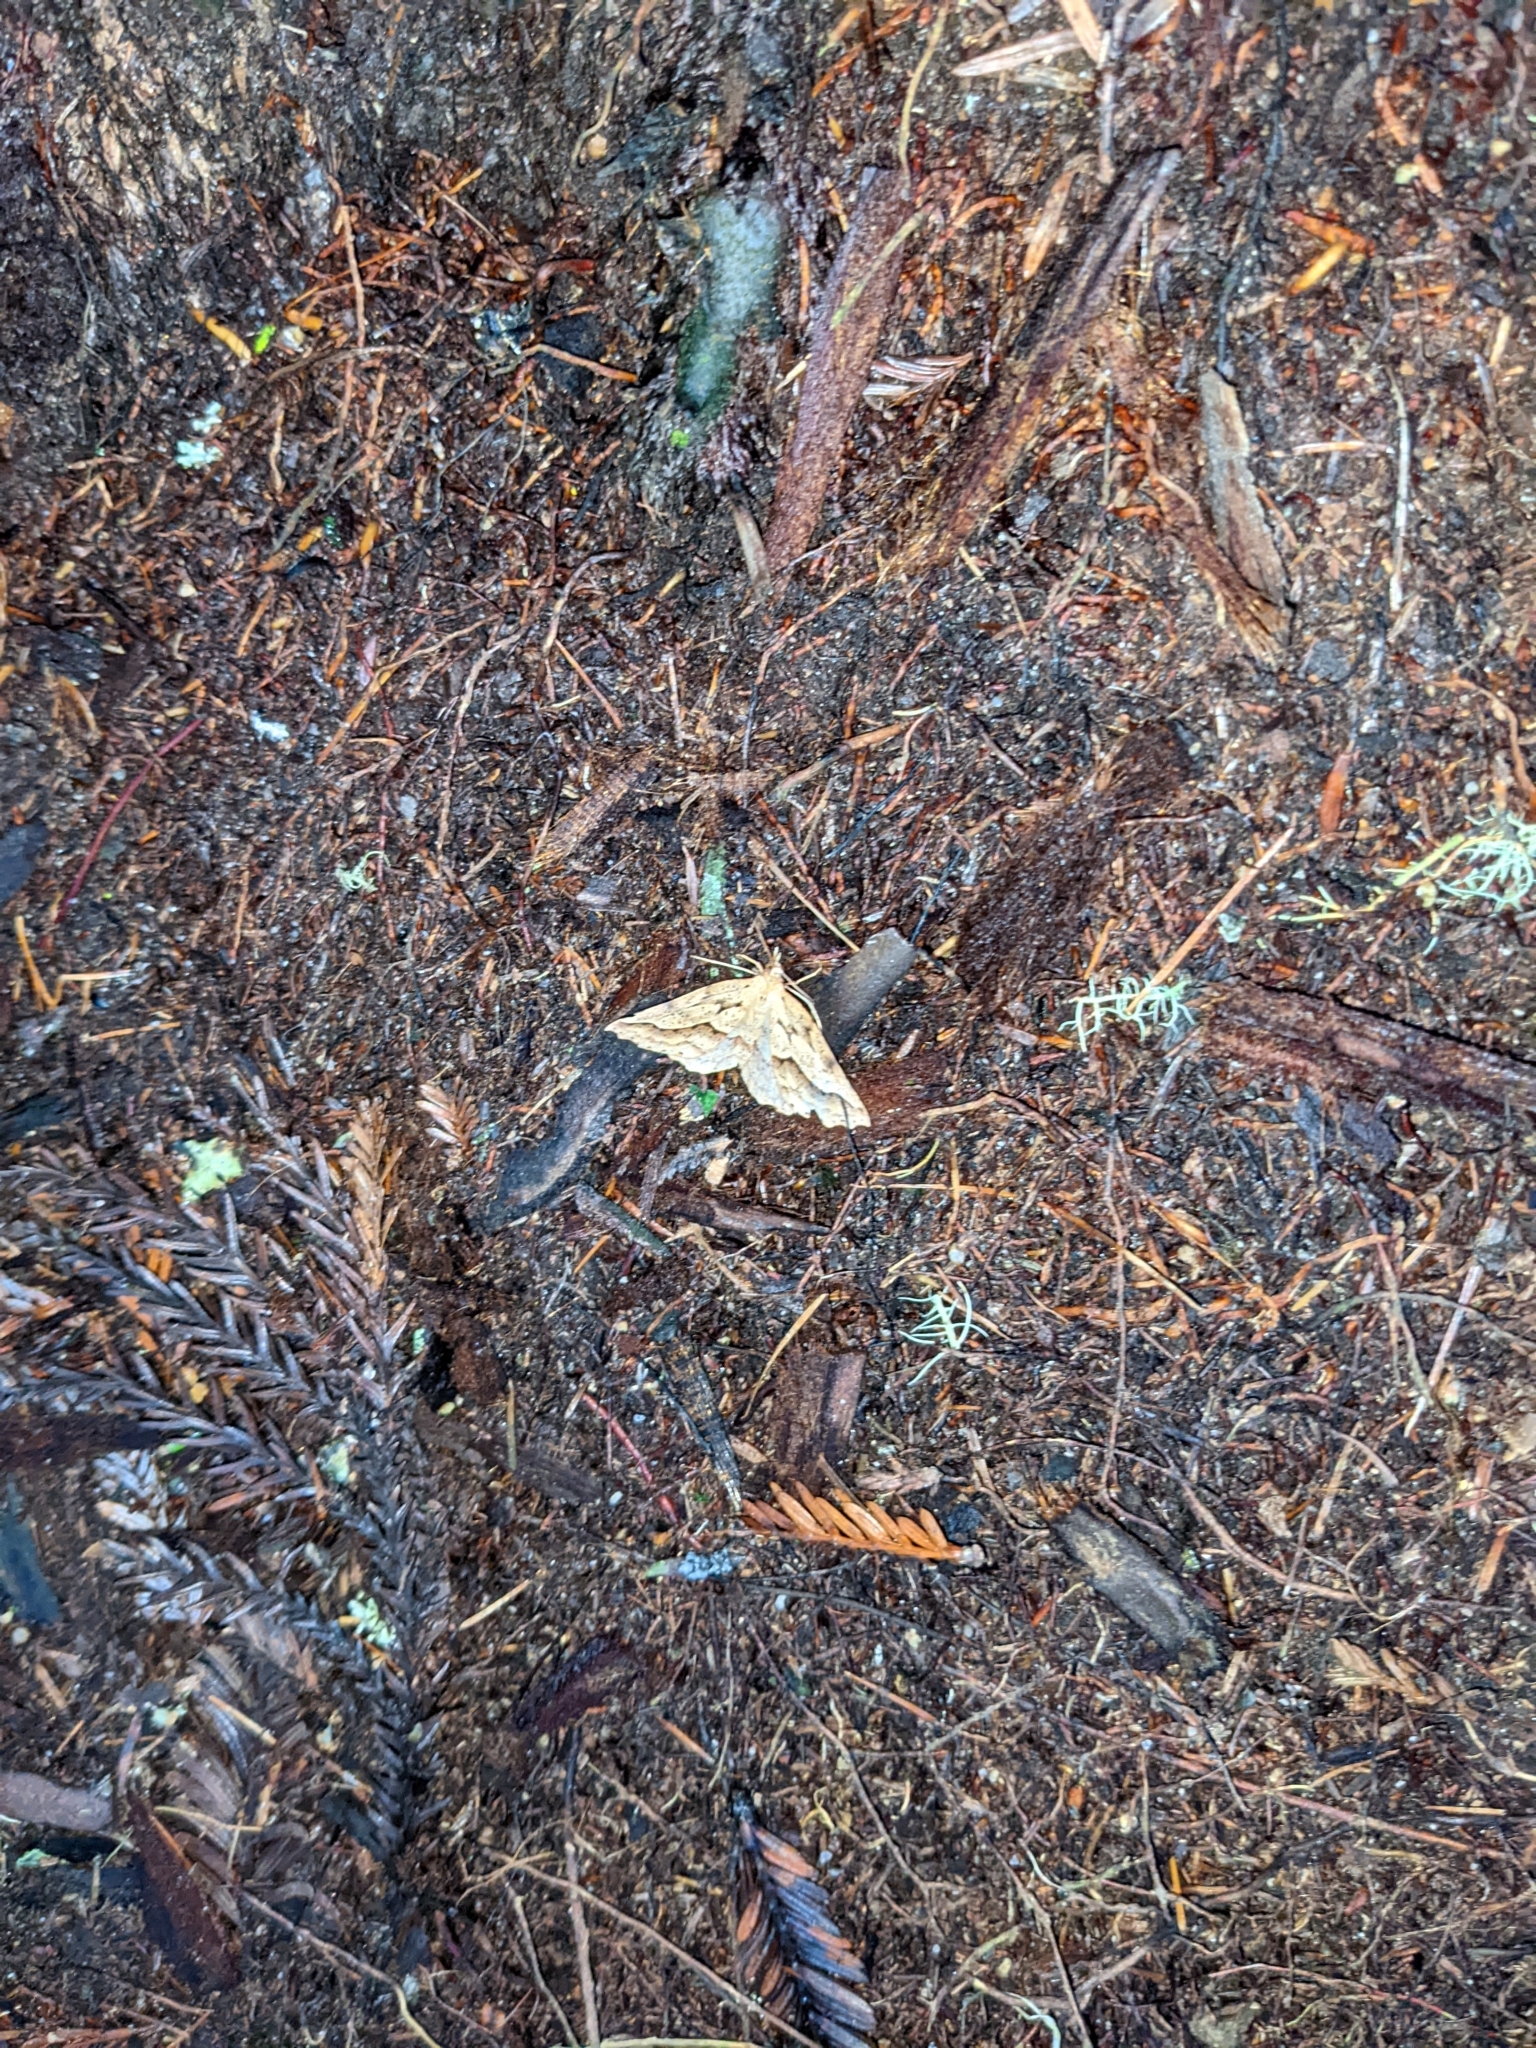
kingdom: Animalia
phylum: Arthropoda
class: Insecta
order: Lepidoptera
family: Geometridae
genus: Ischalis
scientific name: Ischalis variabilis
